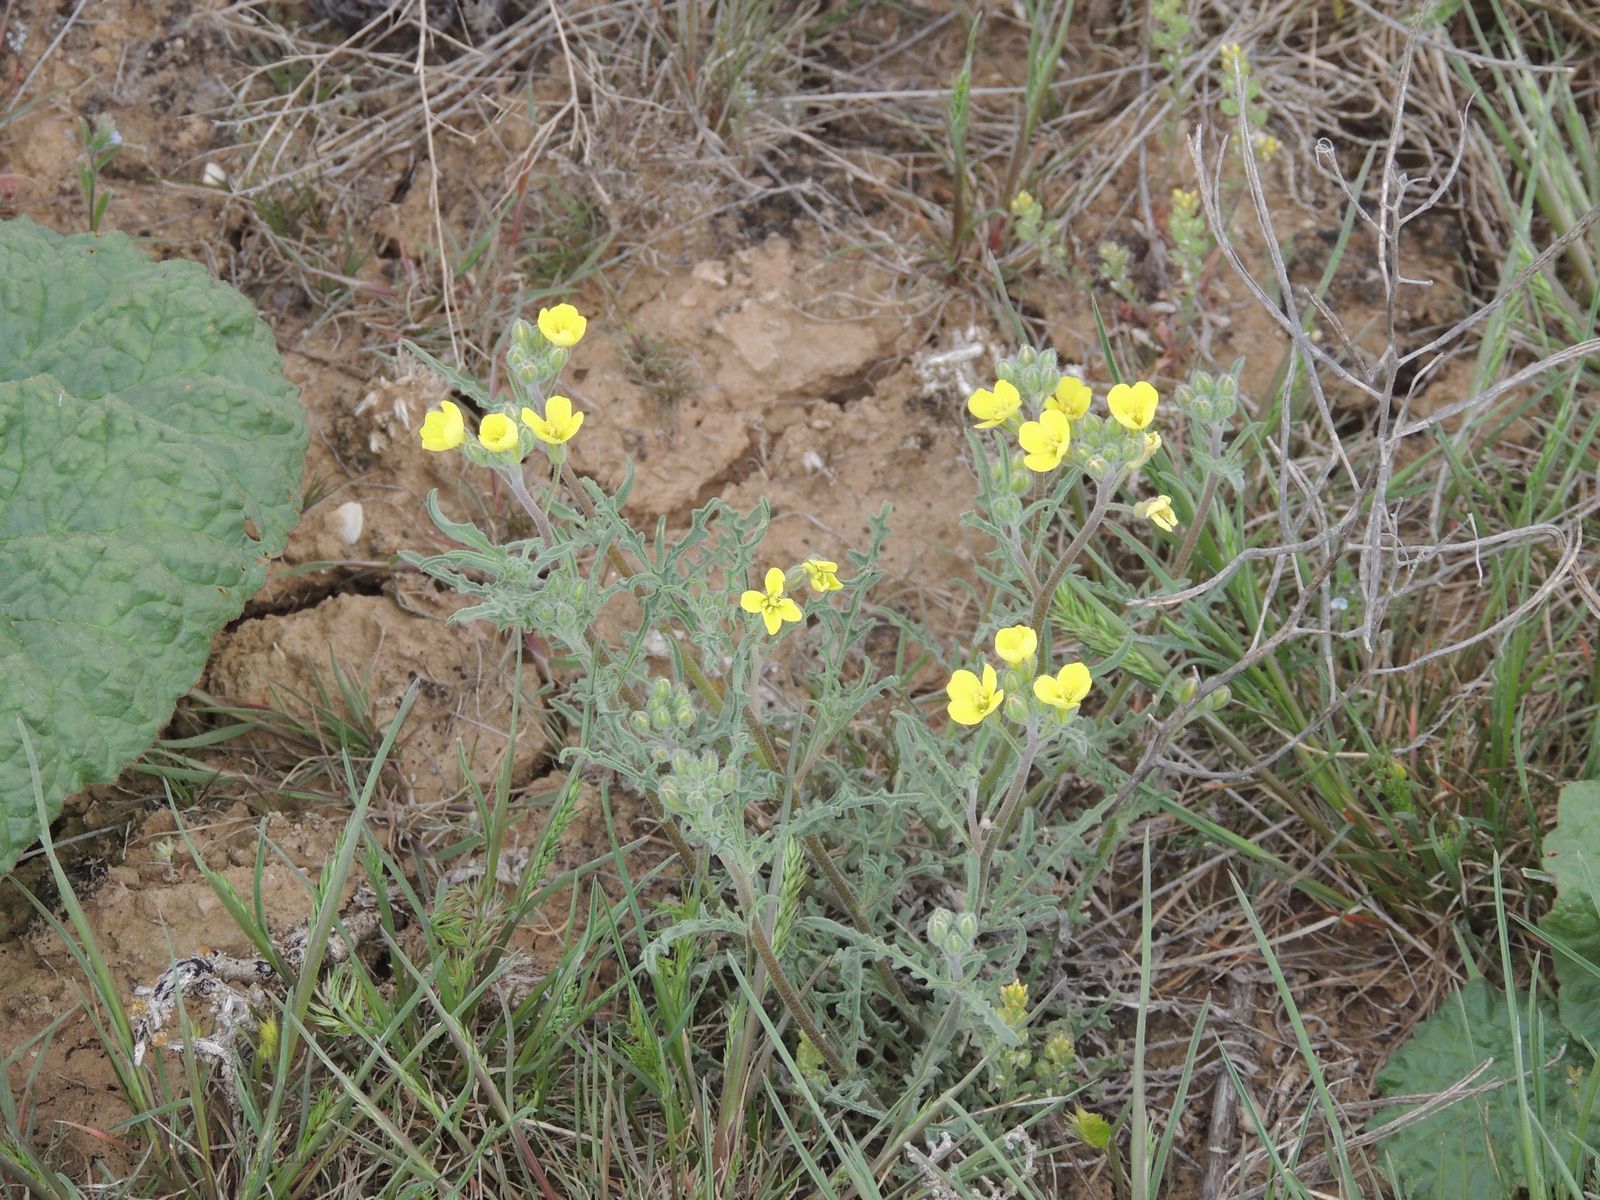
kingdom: Plantae
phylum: Tracheophyta
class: Magnoliopsida
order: Brassicales
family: Brassicaceae
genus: Sterigmostemum
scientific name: Sterigmostemum caspicum
